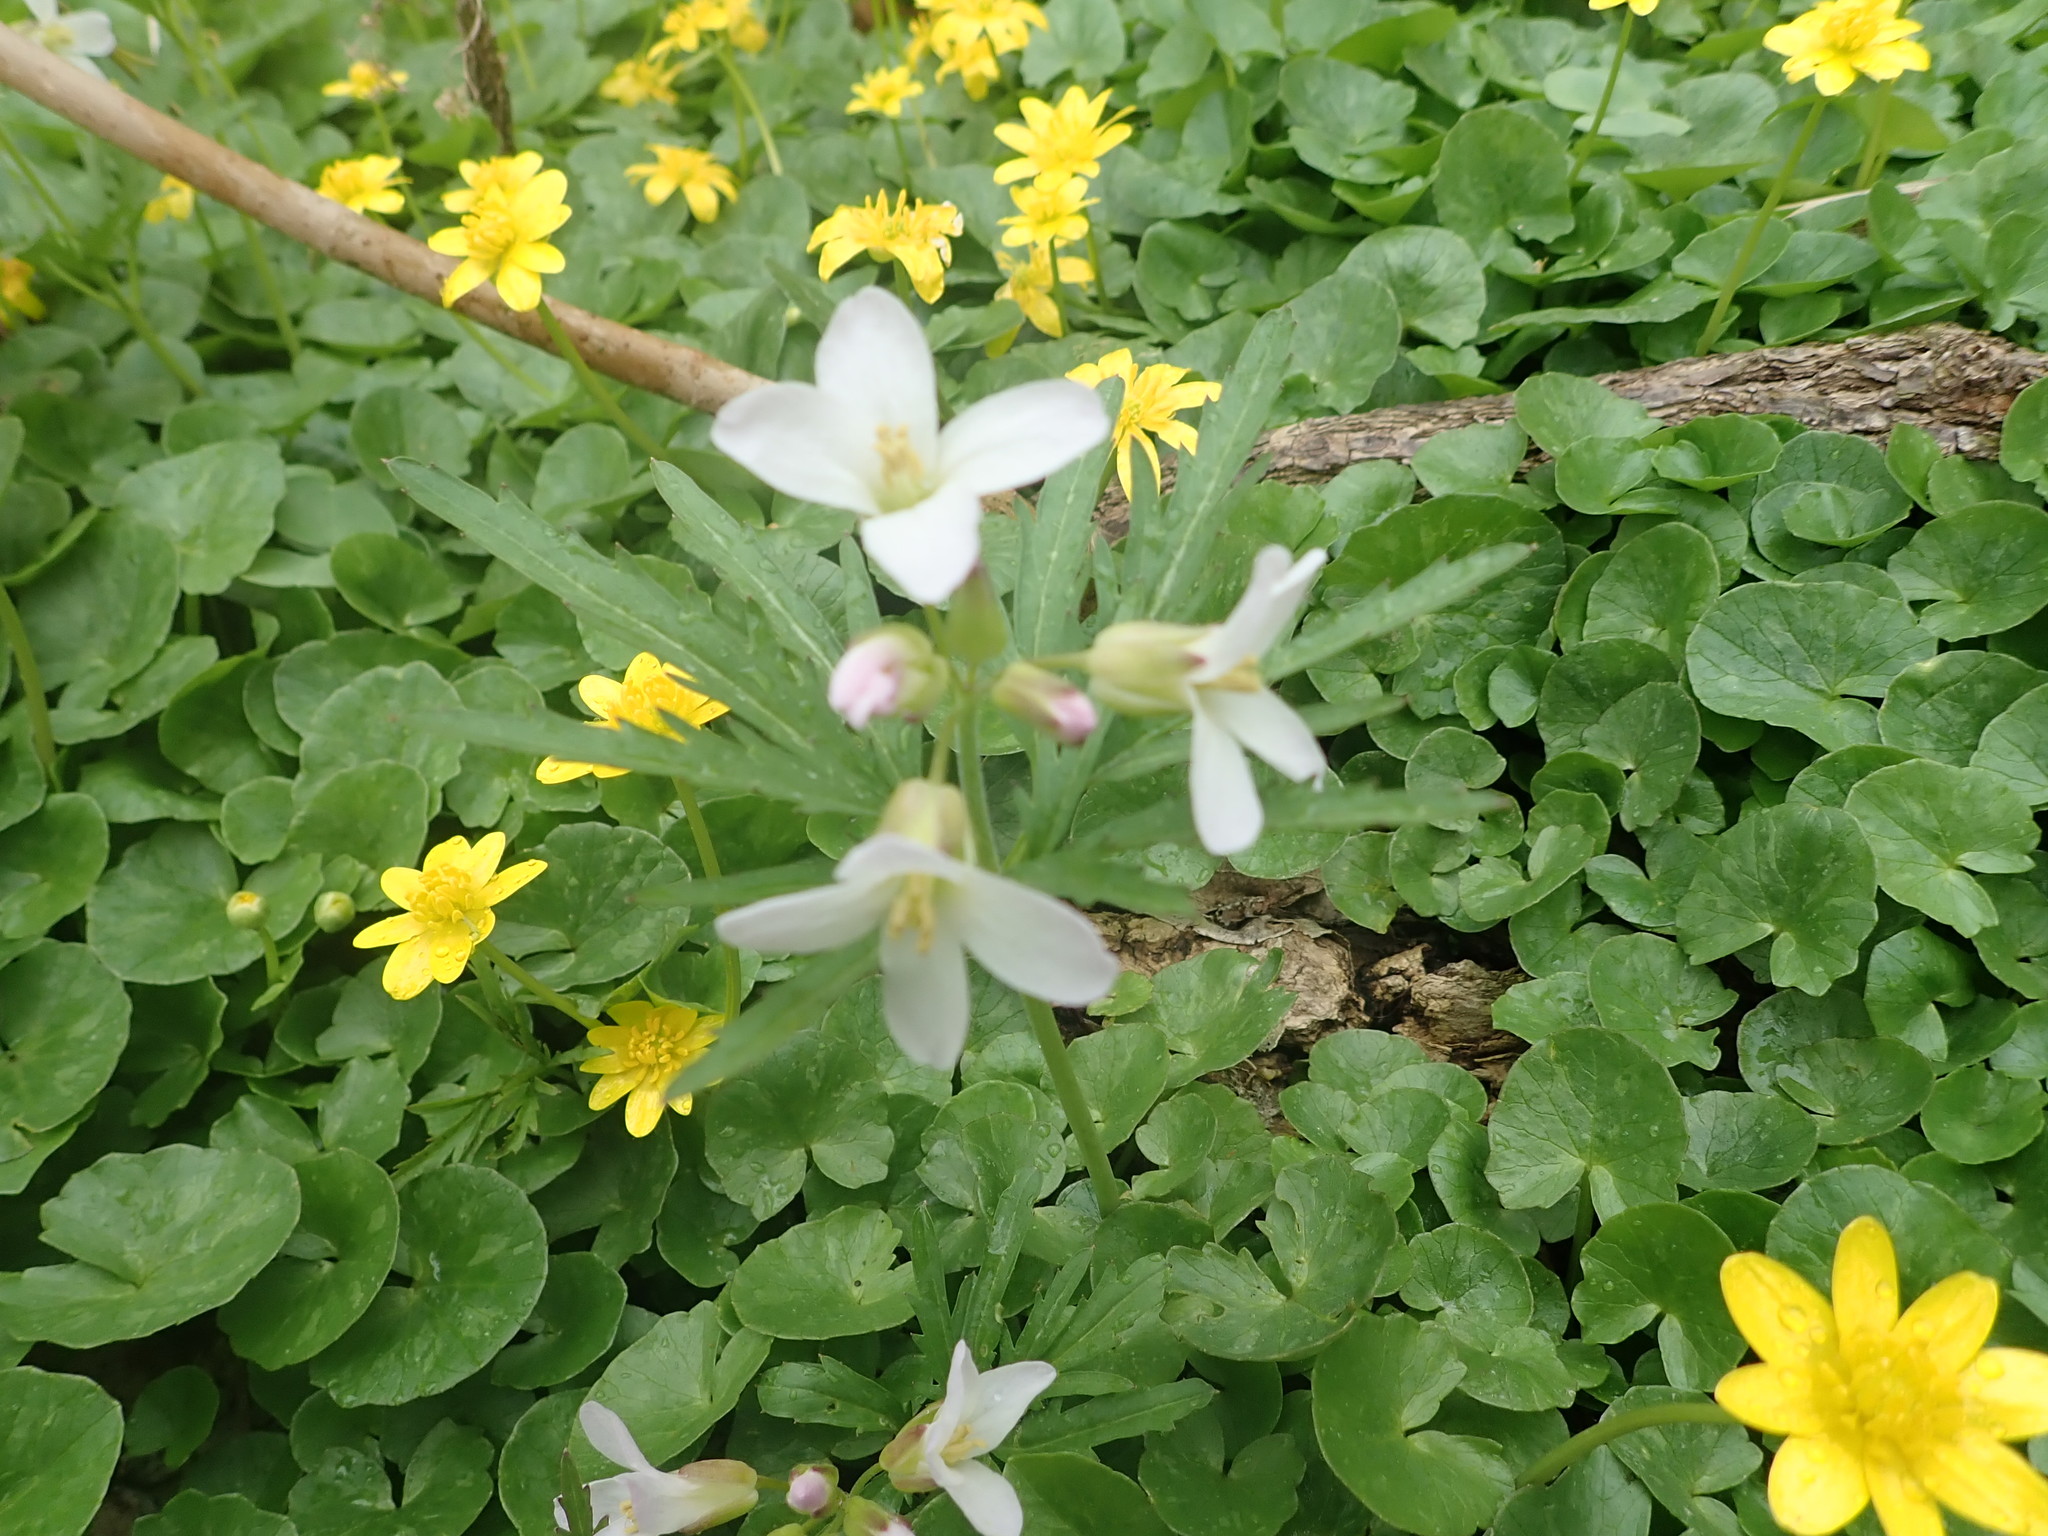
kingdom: Plantae
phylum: Tracheophyta
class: Magnoliopsida
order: Brassicales
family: Brassicaceae
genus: Cardamine
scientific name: Cardamine concatenata
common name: Cut-leaf toothcup
